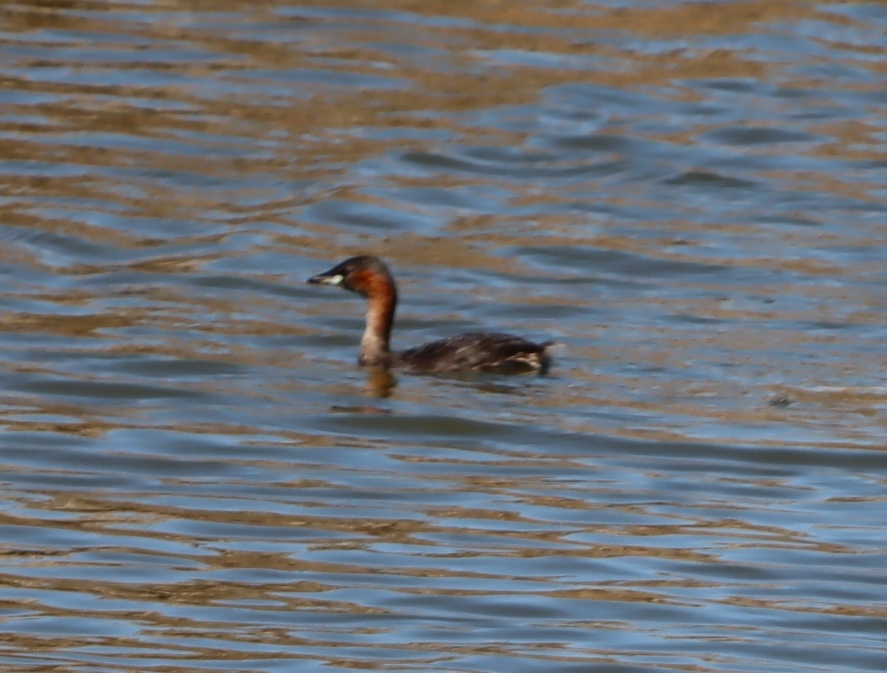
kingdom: Animalia
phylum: Chordata
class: Aves
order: Podicipediformes
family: Podicipedidae
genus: Tachybaptus
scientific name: Tachybaptus ruficollis
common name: Little grebe
